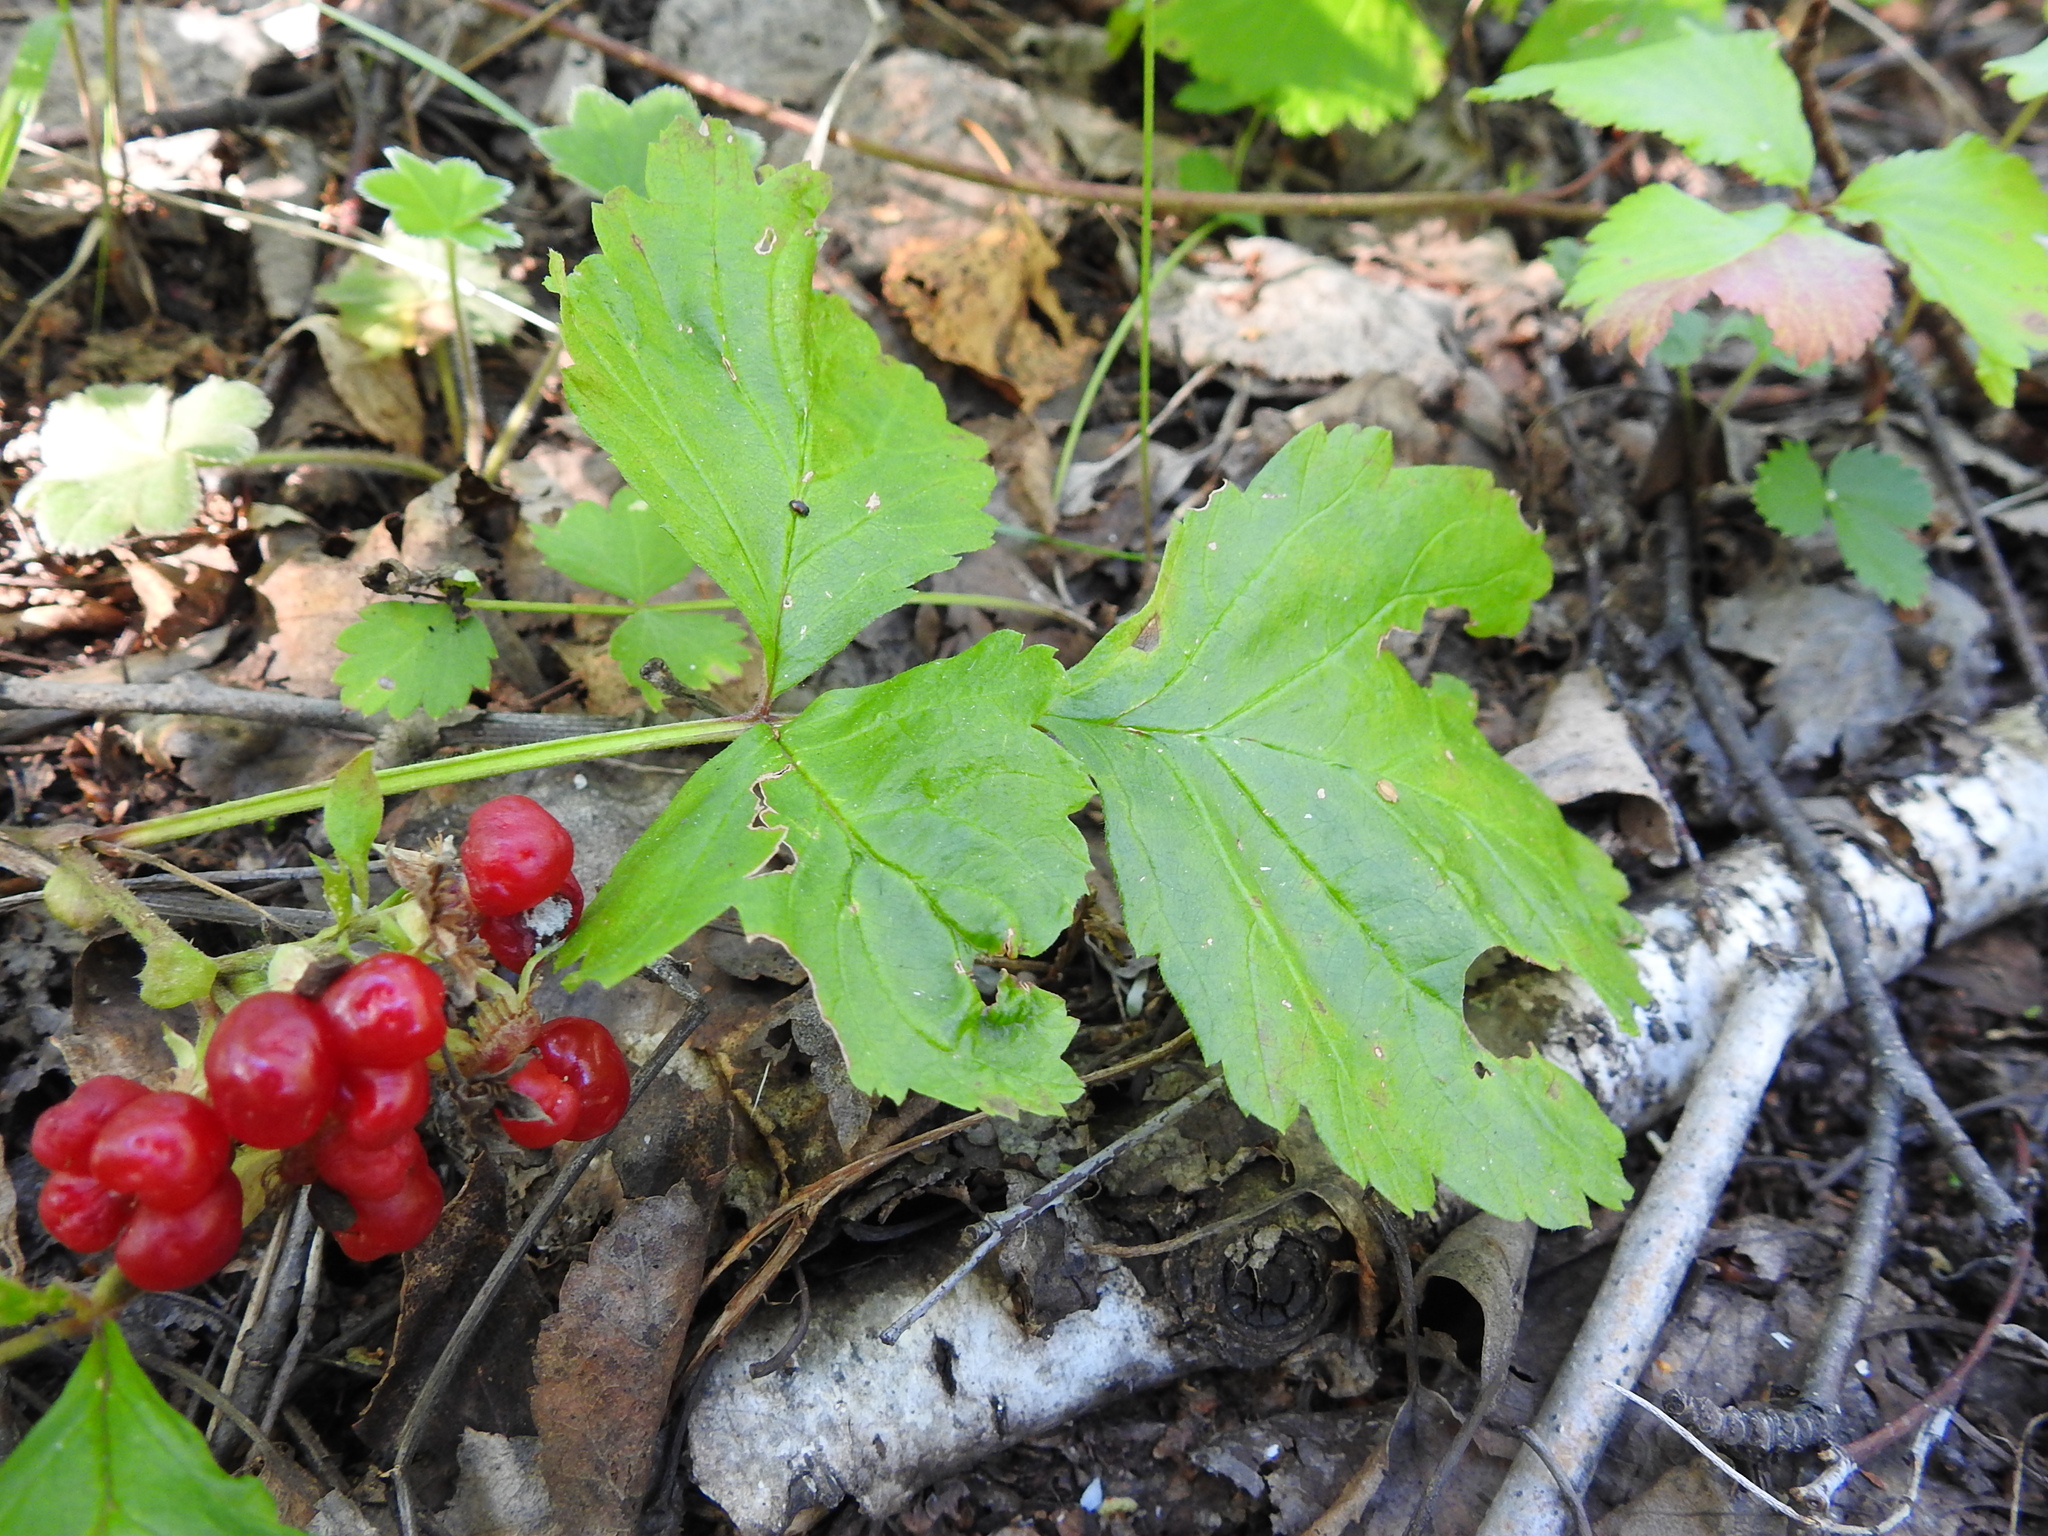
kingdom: Plantae
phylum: Tracheophyta
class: Magnoliopsida
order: Rosales
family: Rosaceae
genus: Rubus
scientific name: Rubus saxatilis
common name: Stone bramble
